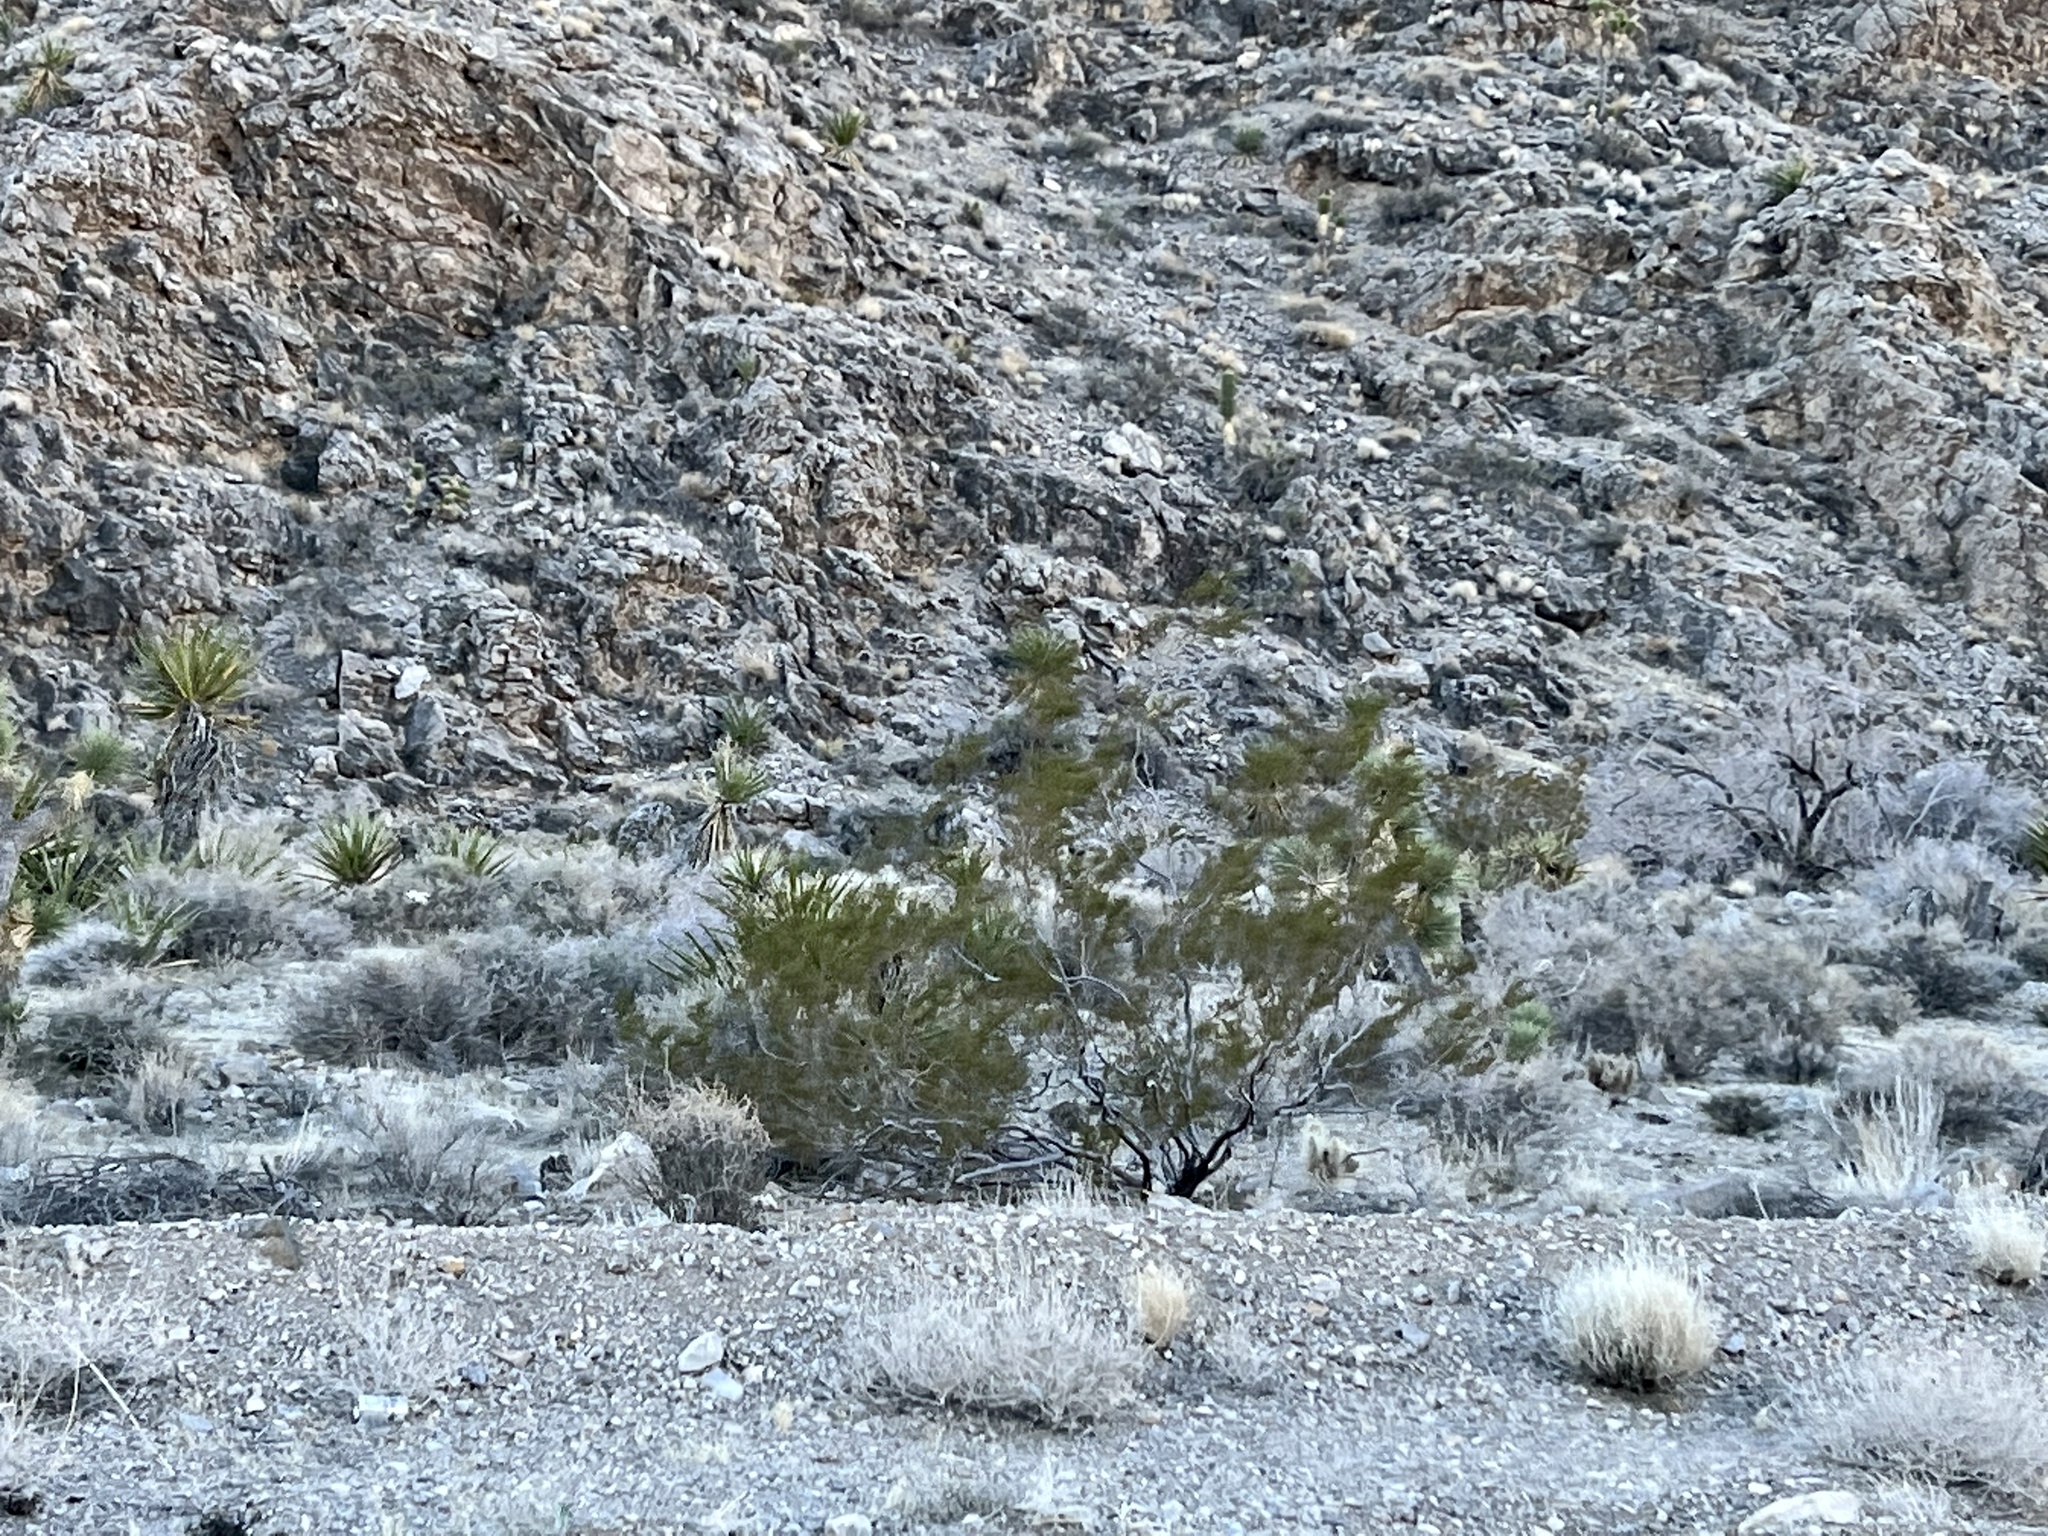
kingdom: Plantae
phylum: Tracheophyta
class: Magnoliopsida
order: Zygophyllales
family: Zygophyllaceae
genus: Larrea
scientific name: Larrea tridentata
